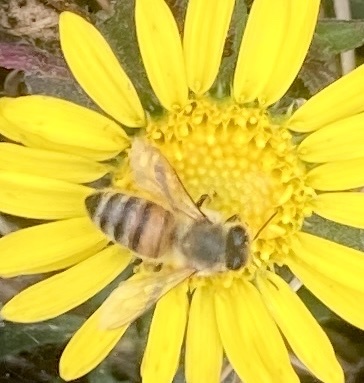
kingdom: Animalia
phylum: Arthropoda
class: Insecta
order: Hymenoptera
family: Apidae
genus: Apis
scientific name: Apis mellifera
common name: Honey bee
